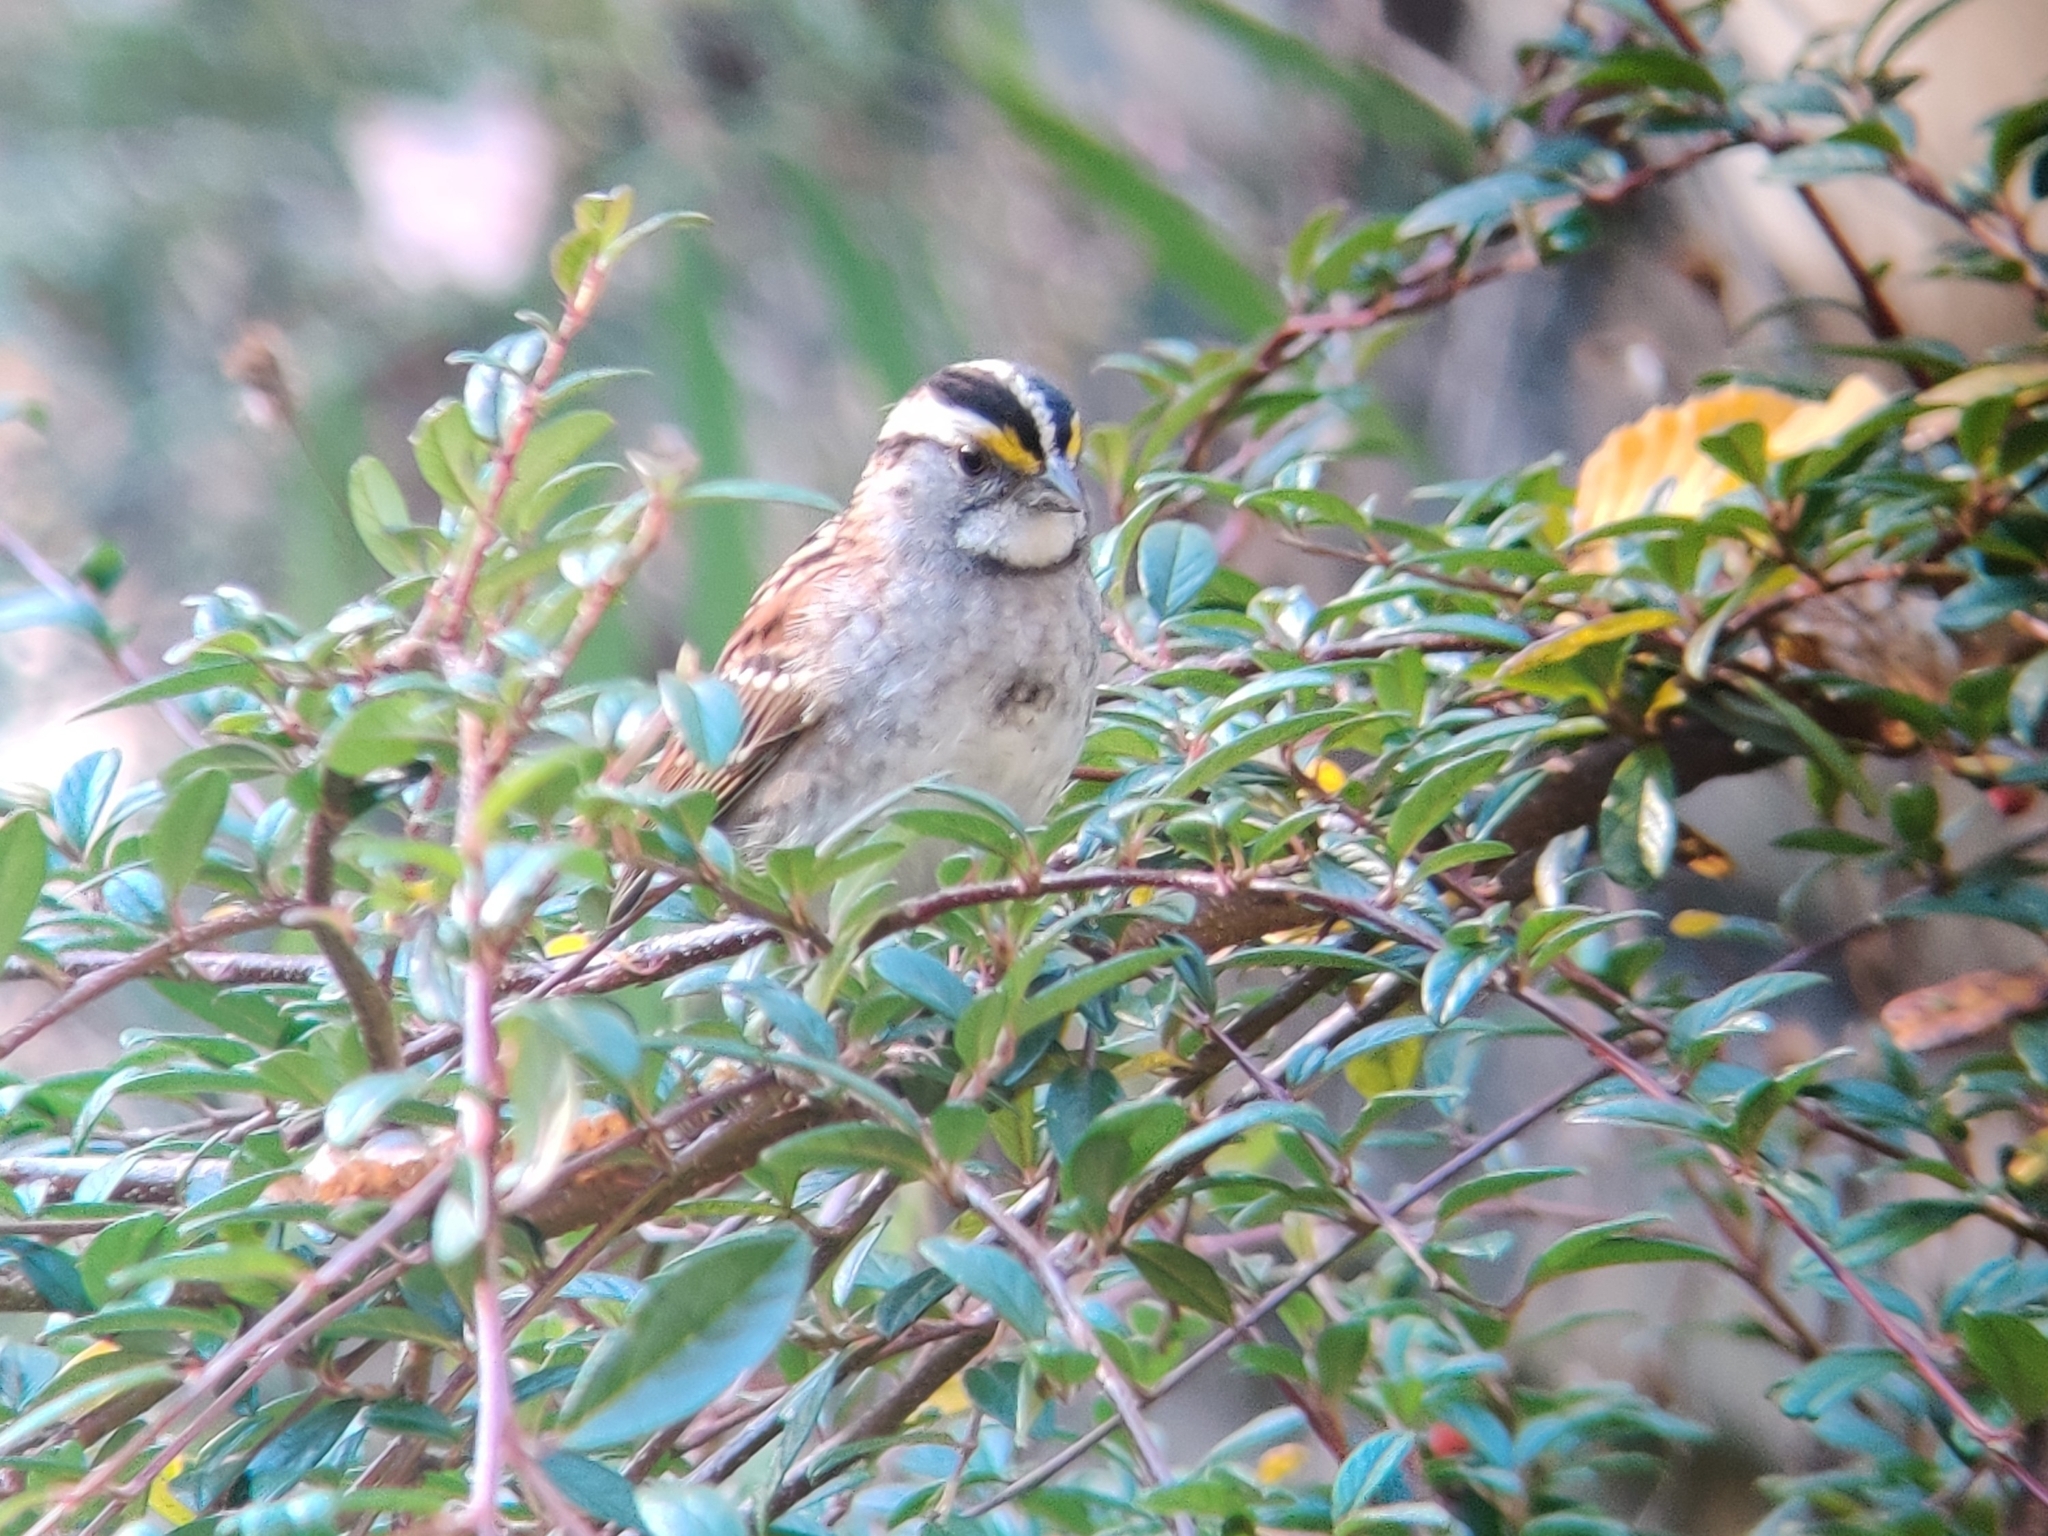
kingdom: Animalia
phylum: Chordata
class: Aves
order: Passeriformes
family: Passerellidae
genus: Zonotrichia
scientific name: Zonotrichia albicollis
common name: White-throated sparrow
